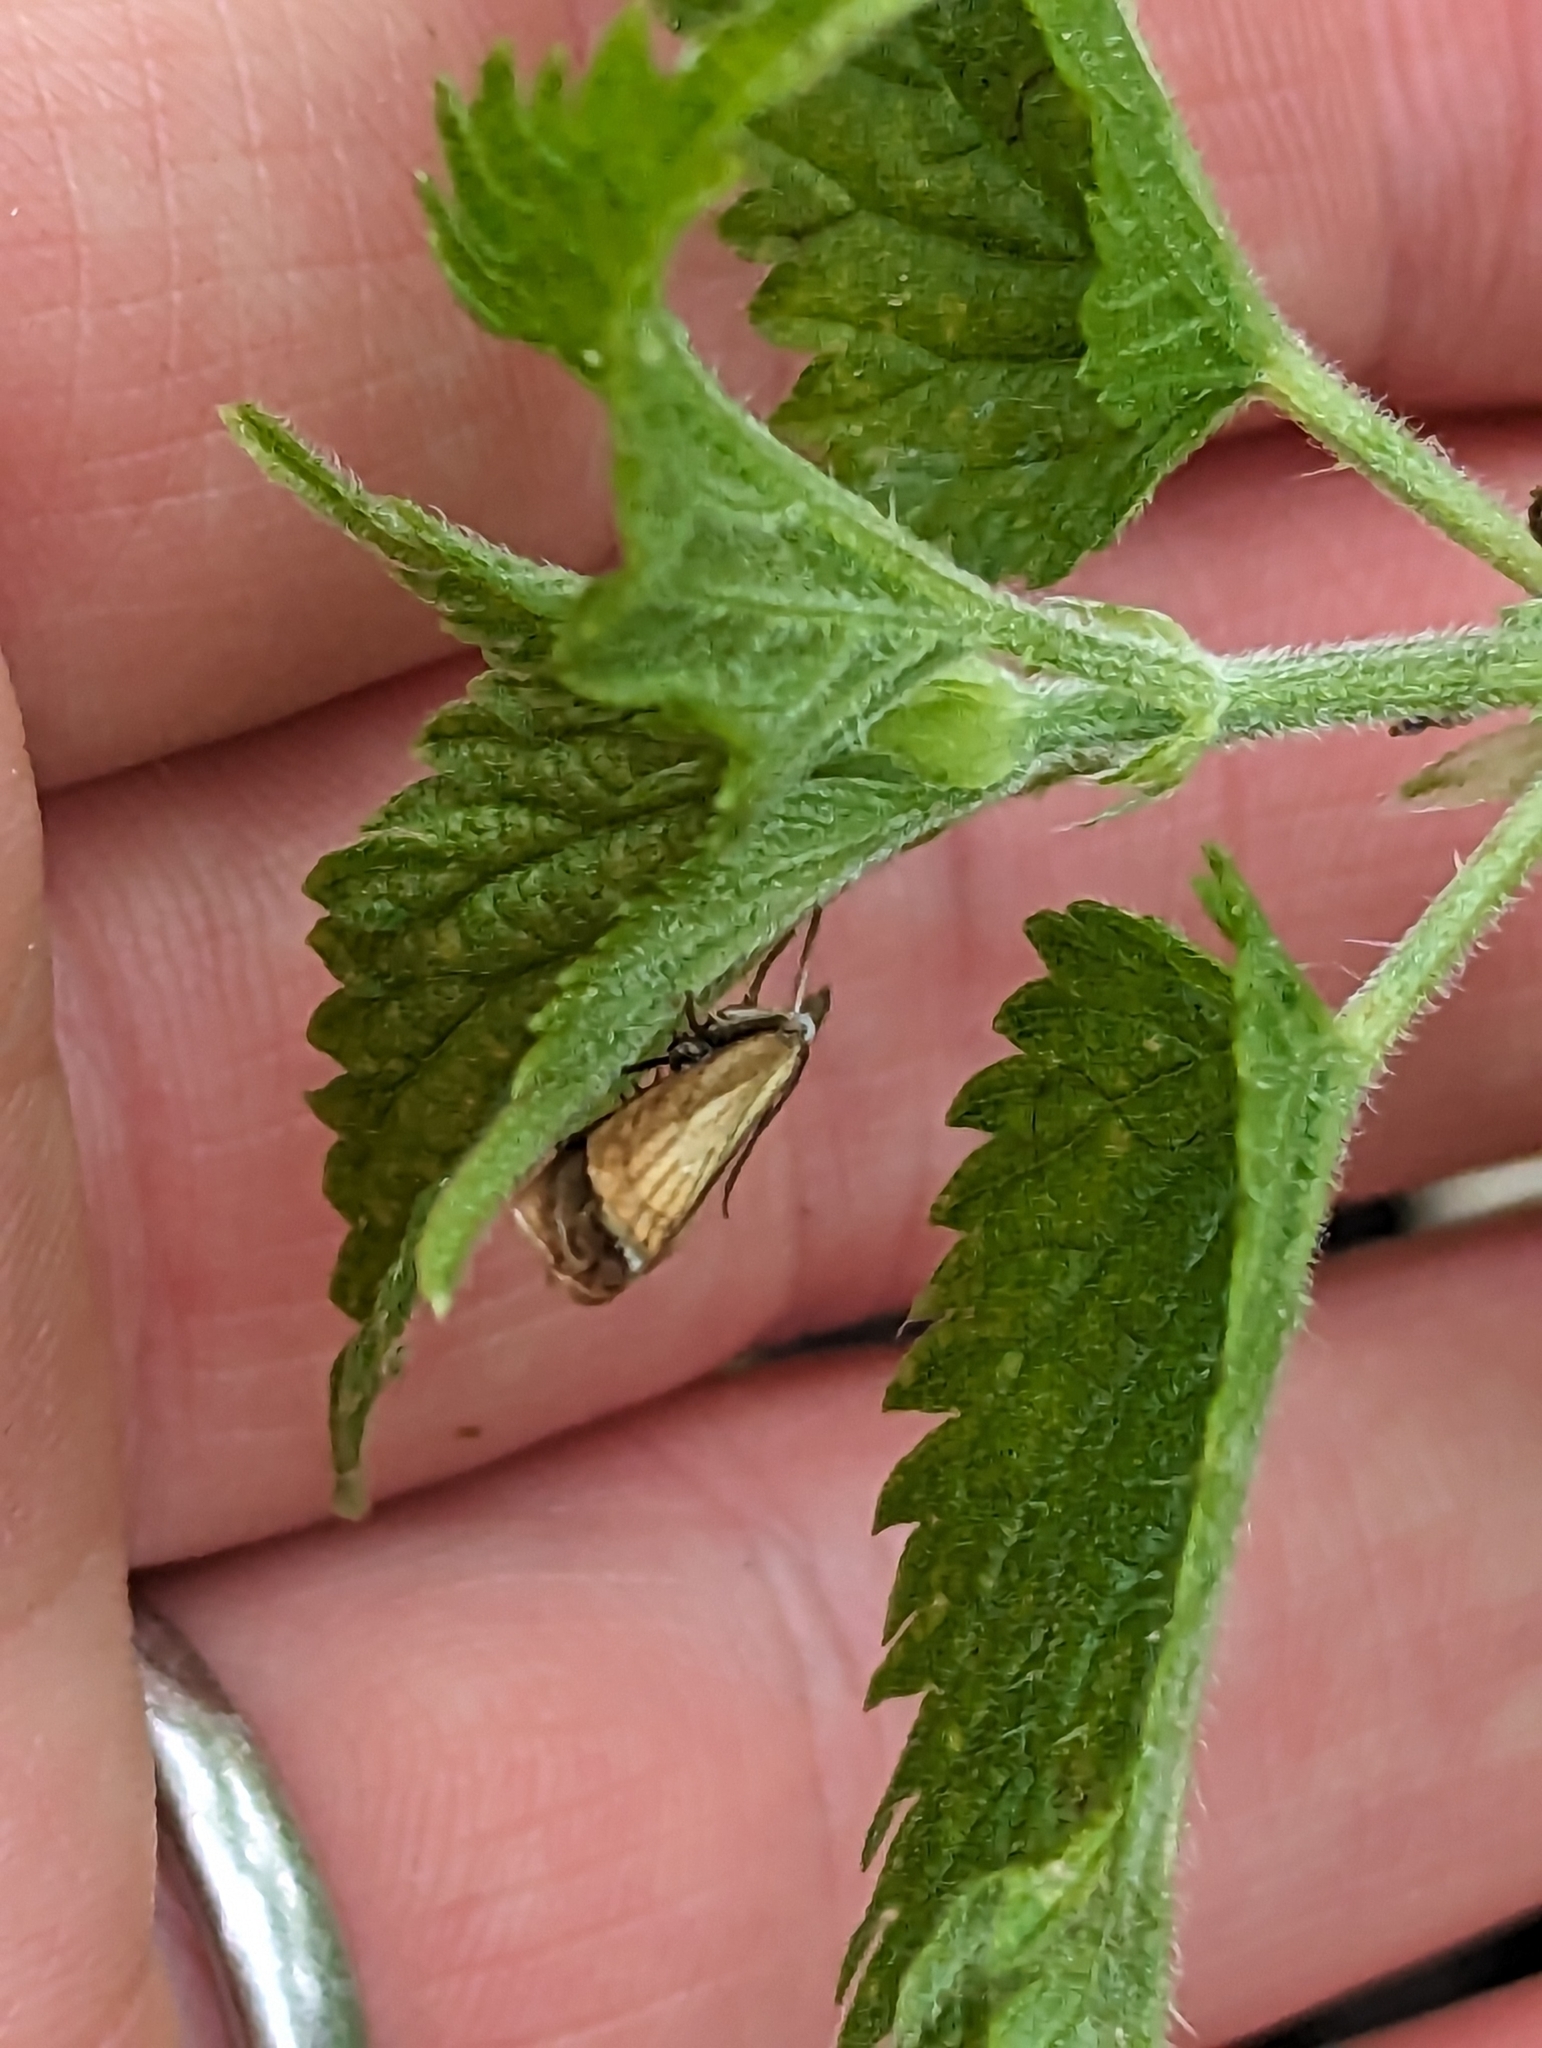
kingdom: Animalia
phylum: Arthropoda
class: Insecta
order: Lepidoptera
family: Crambidae
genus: Chrysoteuchia
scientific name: Chrysoteuchia culmella
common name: Garden grass-veneer
